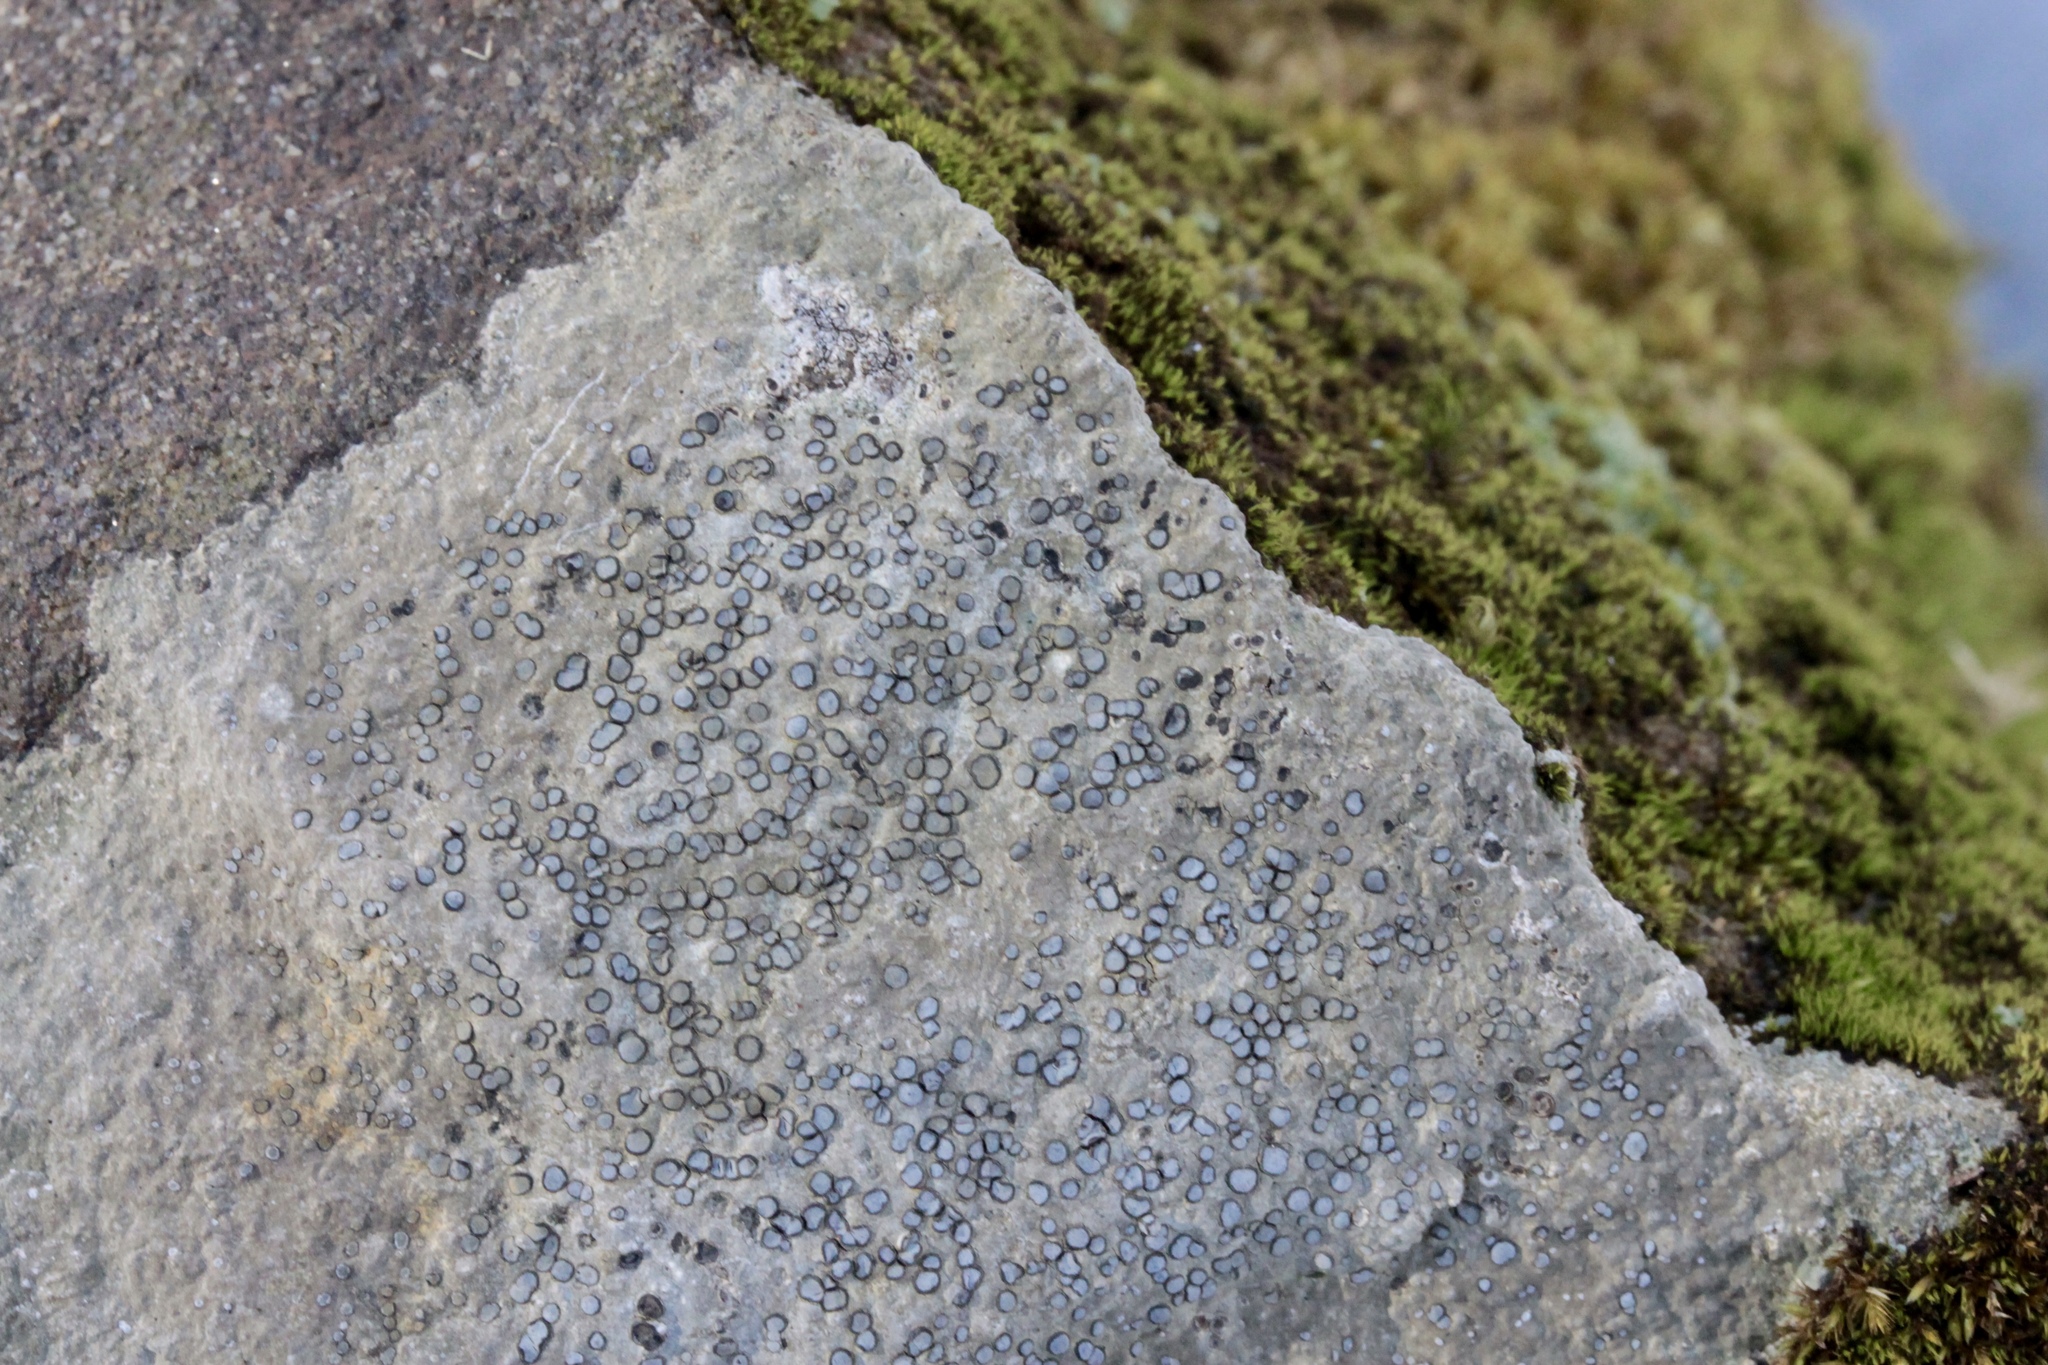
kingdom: Fungi
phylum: Ascomycota
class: Lecanoromycetes
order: Lecideales
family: Lecideaceae
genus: Porpidia
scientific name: Porpidia albocaerulescens
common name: Smokey-eyed boulder lichen
